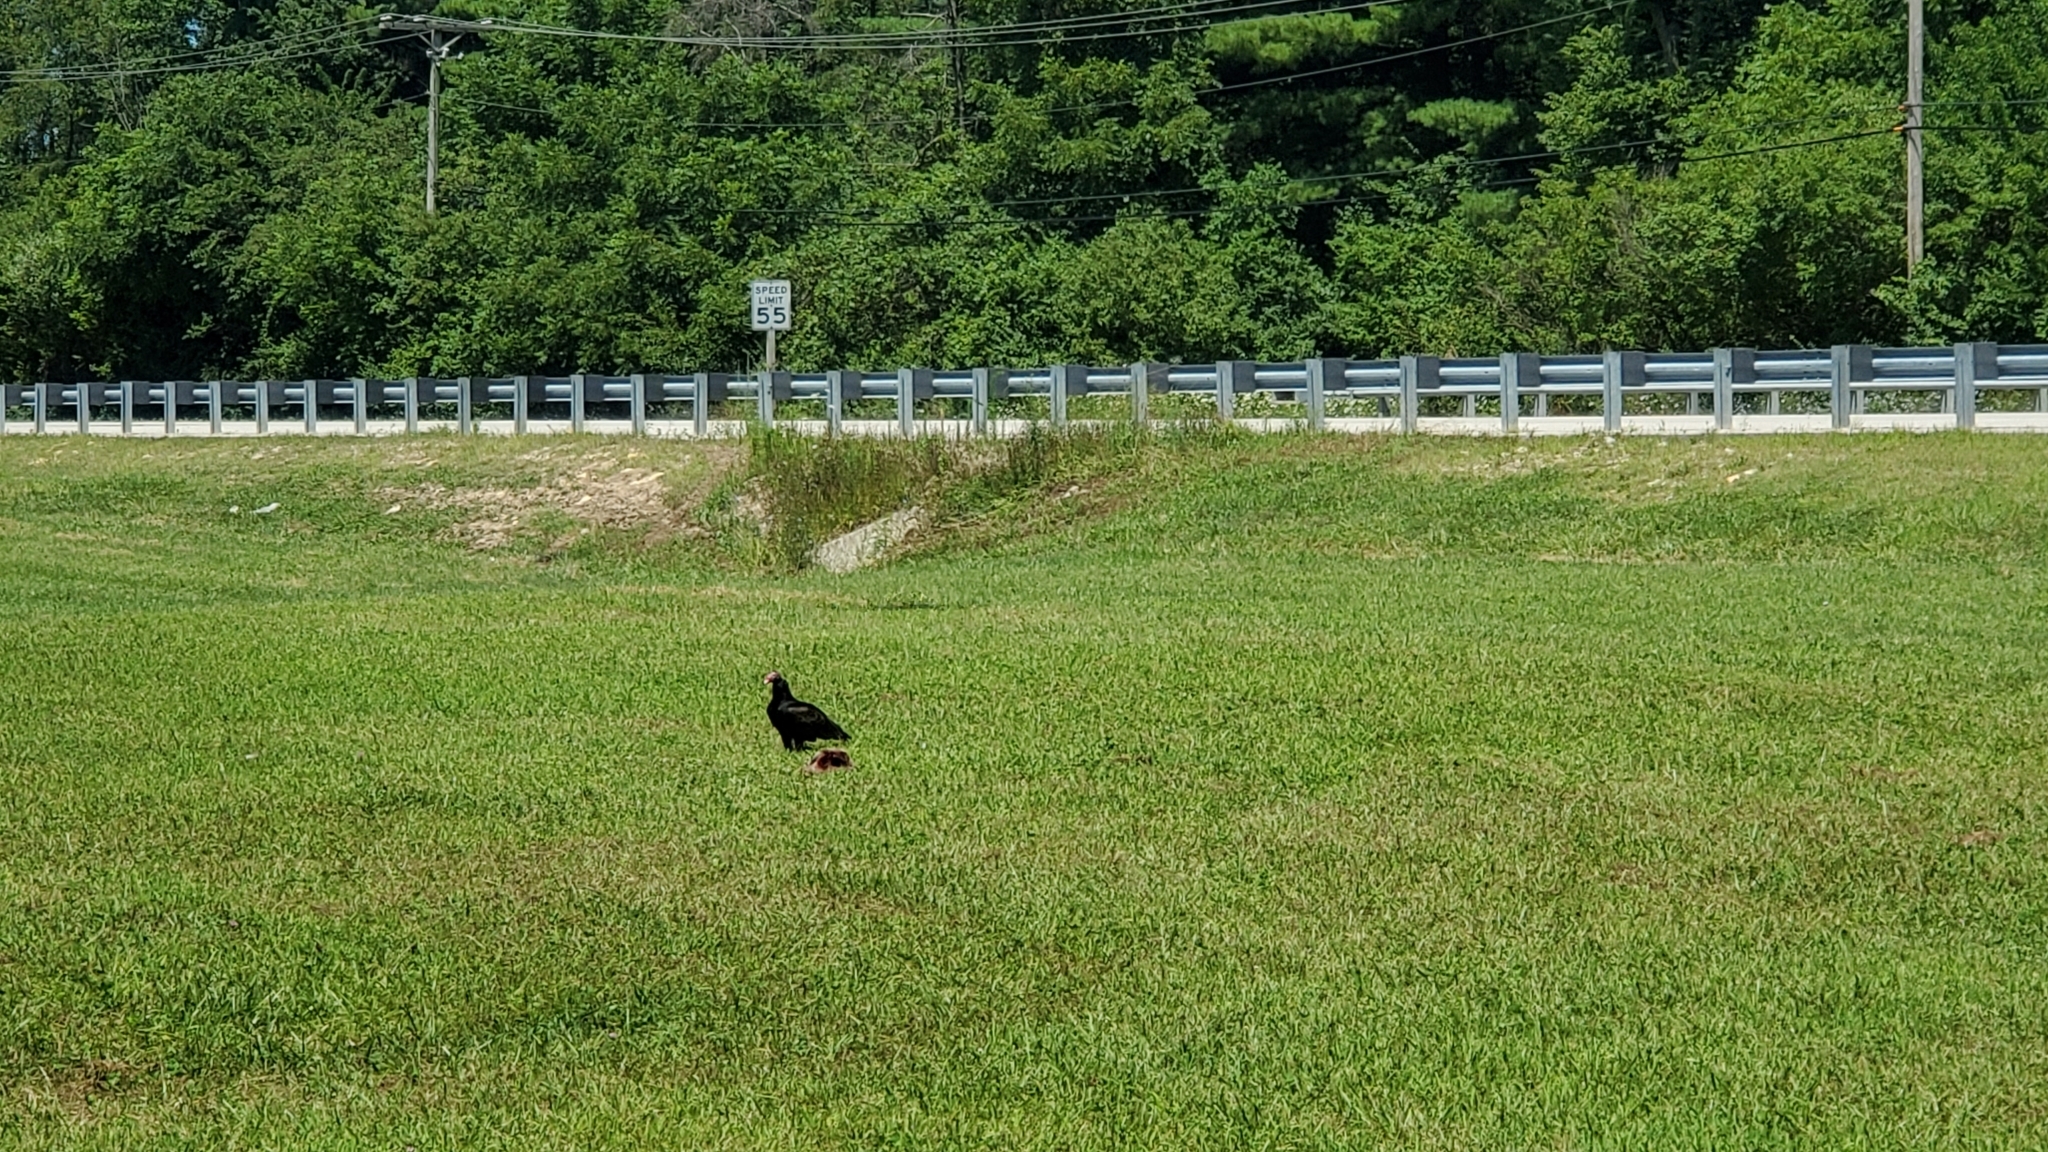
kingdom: Animalia
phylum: Chordata
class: Aves
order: Accipitriformes
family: Cathartidae
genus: Cathartes
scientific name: Cathartes aura
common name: Turkey vulture
